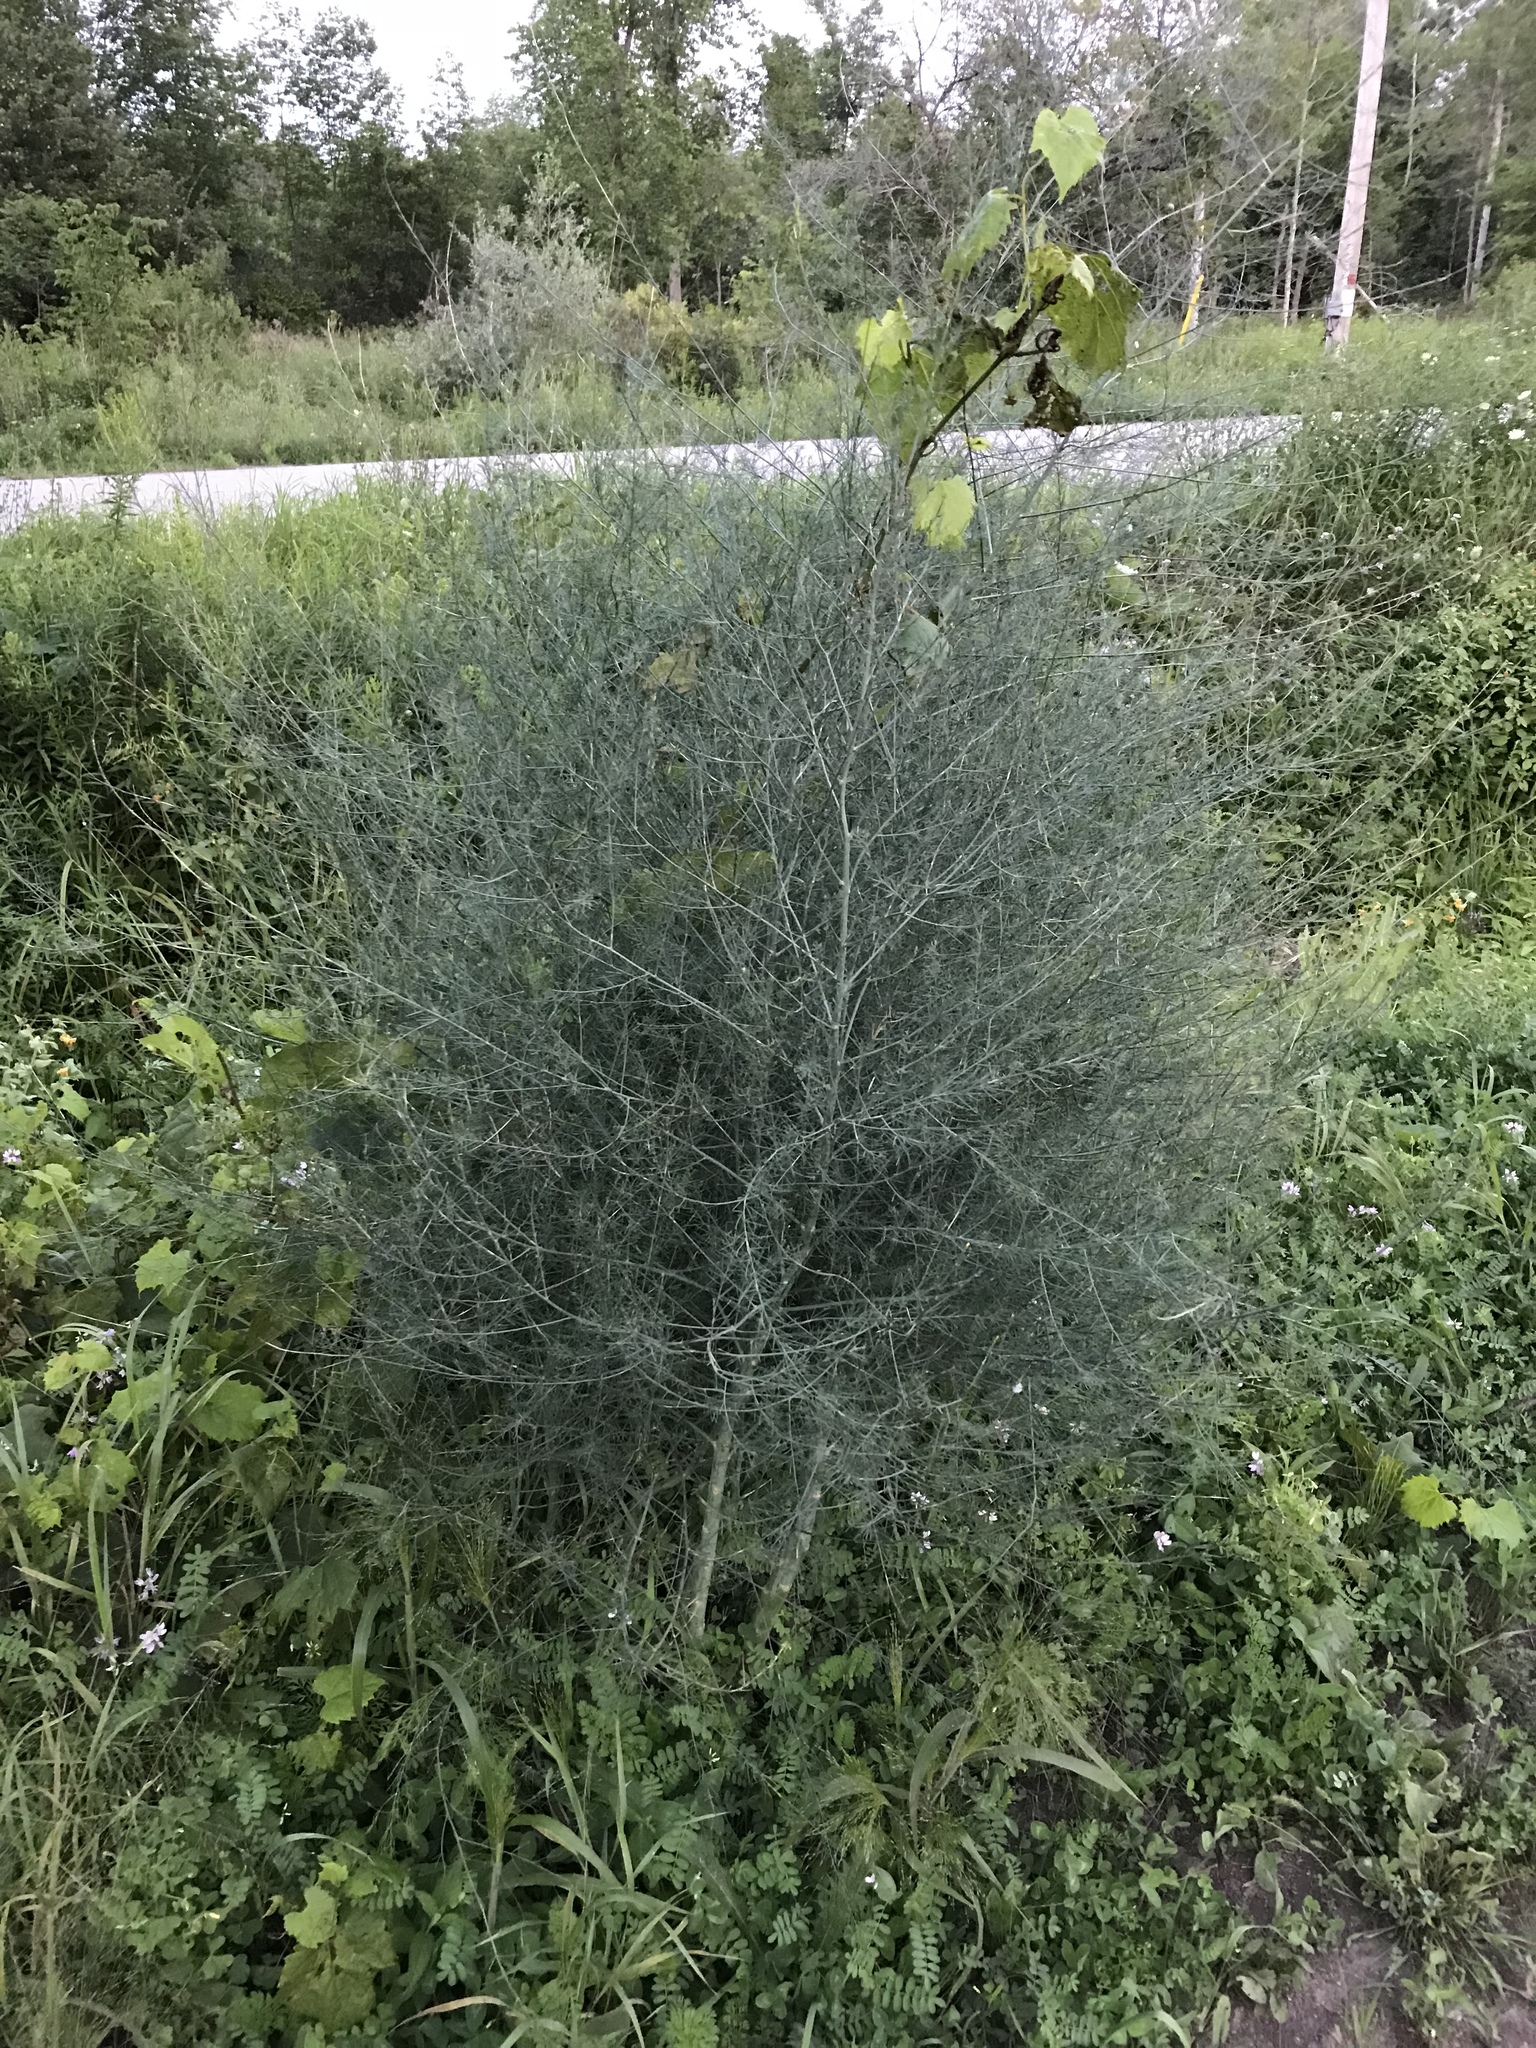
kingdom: Plantae
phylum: Tracheophyta
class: Liliopsida
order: Asparagales
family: Asparagaceae
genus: Asparagus
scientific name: Asparagus officinalis
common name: Garden asparagus
